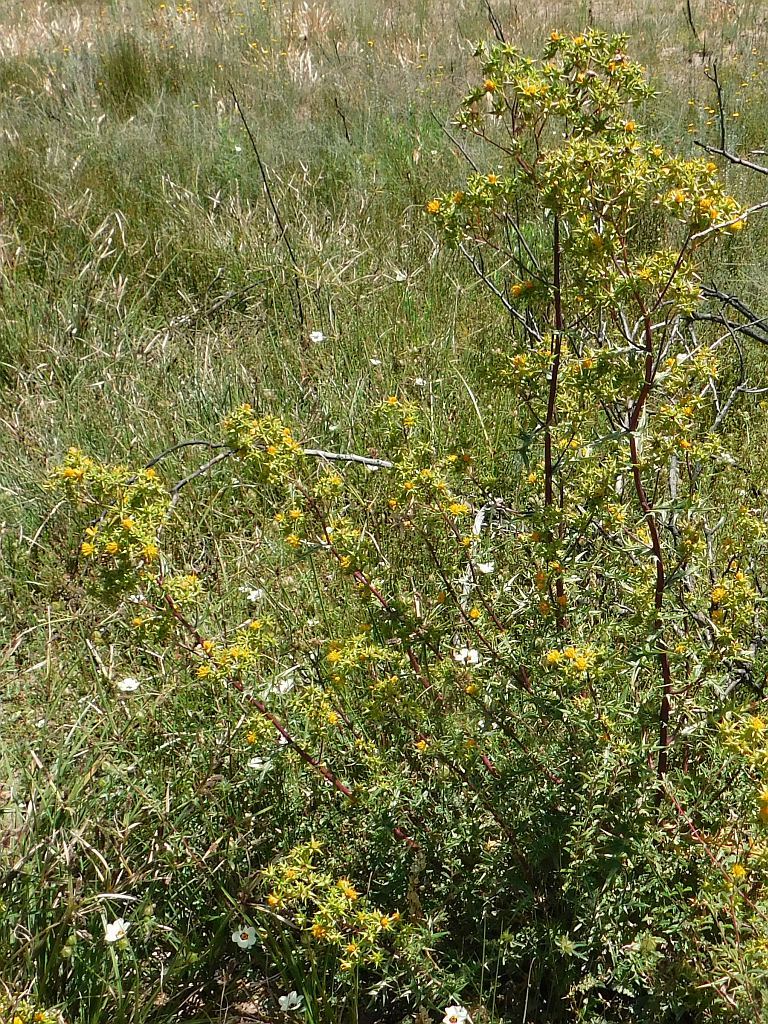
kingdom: Plantae
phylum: Tracheophyta
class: Magnoliopsida
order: Asterales
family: Asteraceae
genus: Berkheya
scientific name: Berkheya rigida
